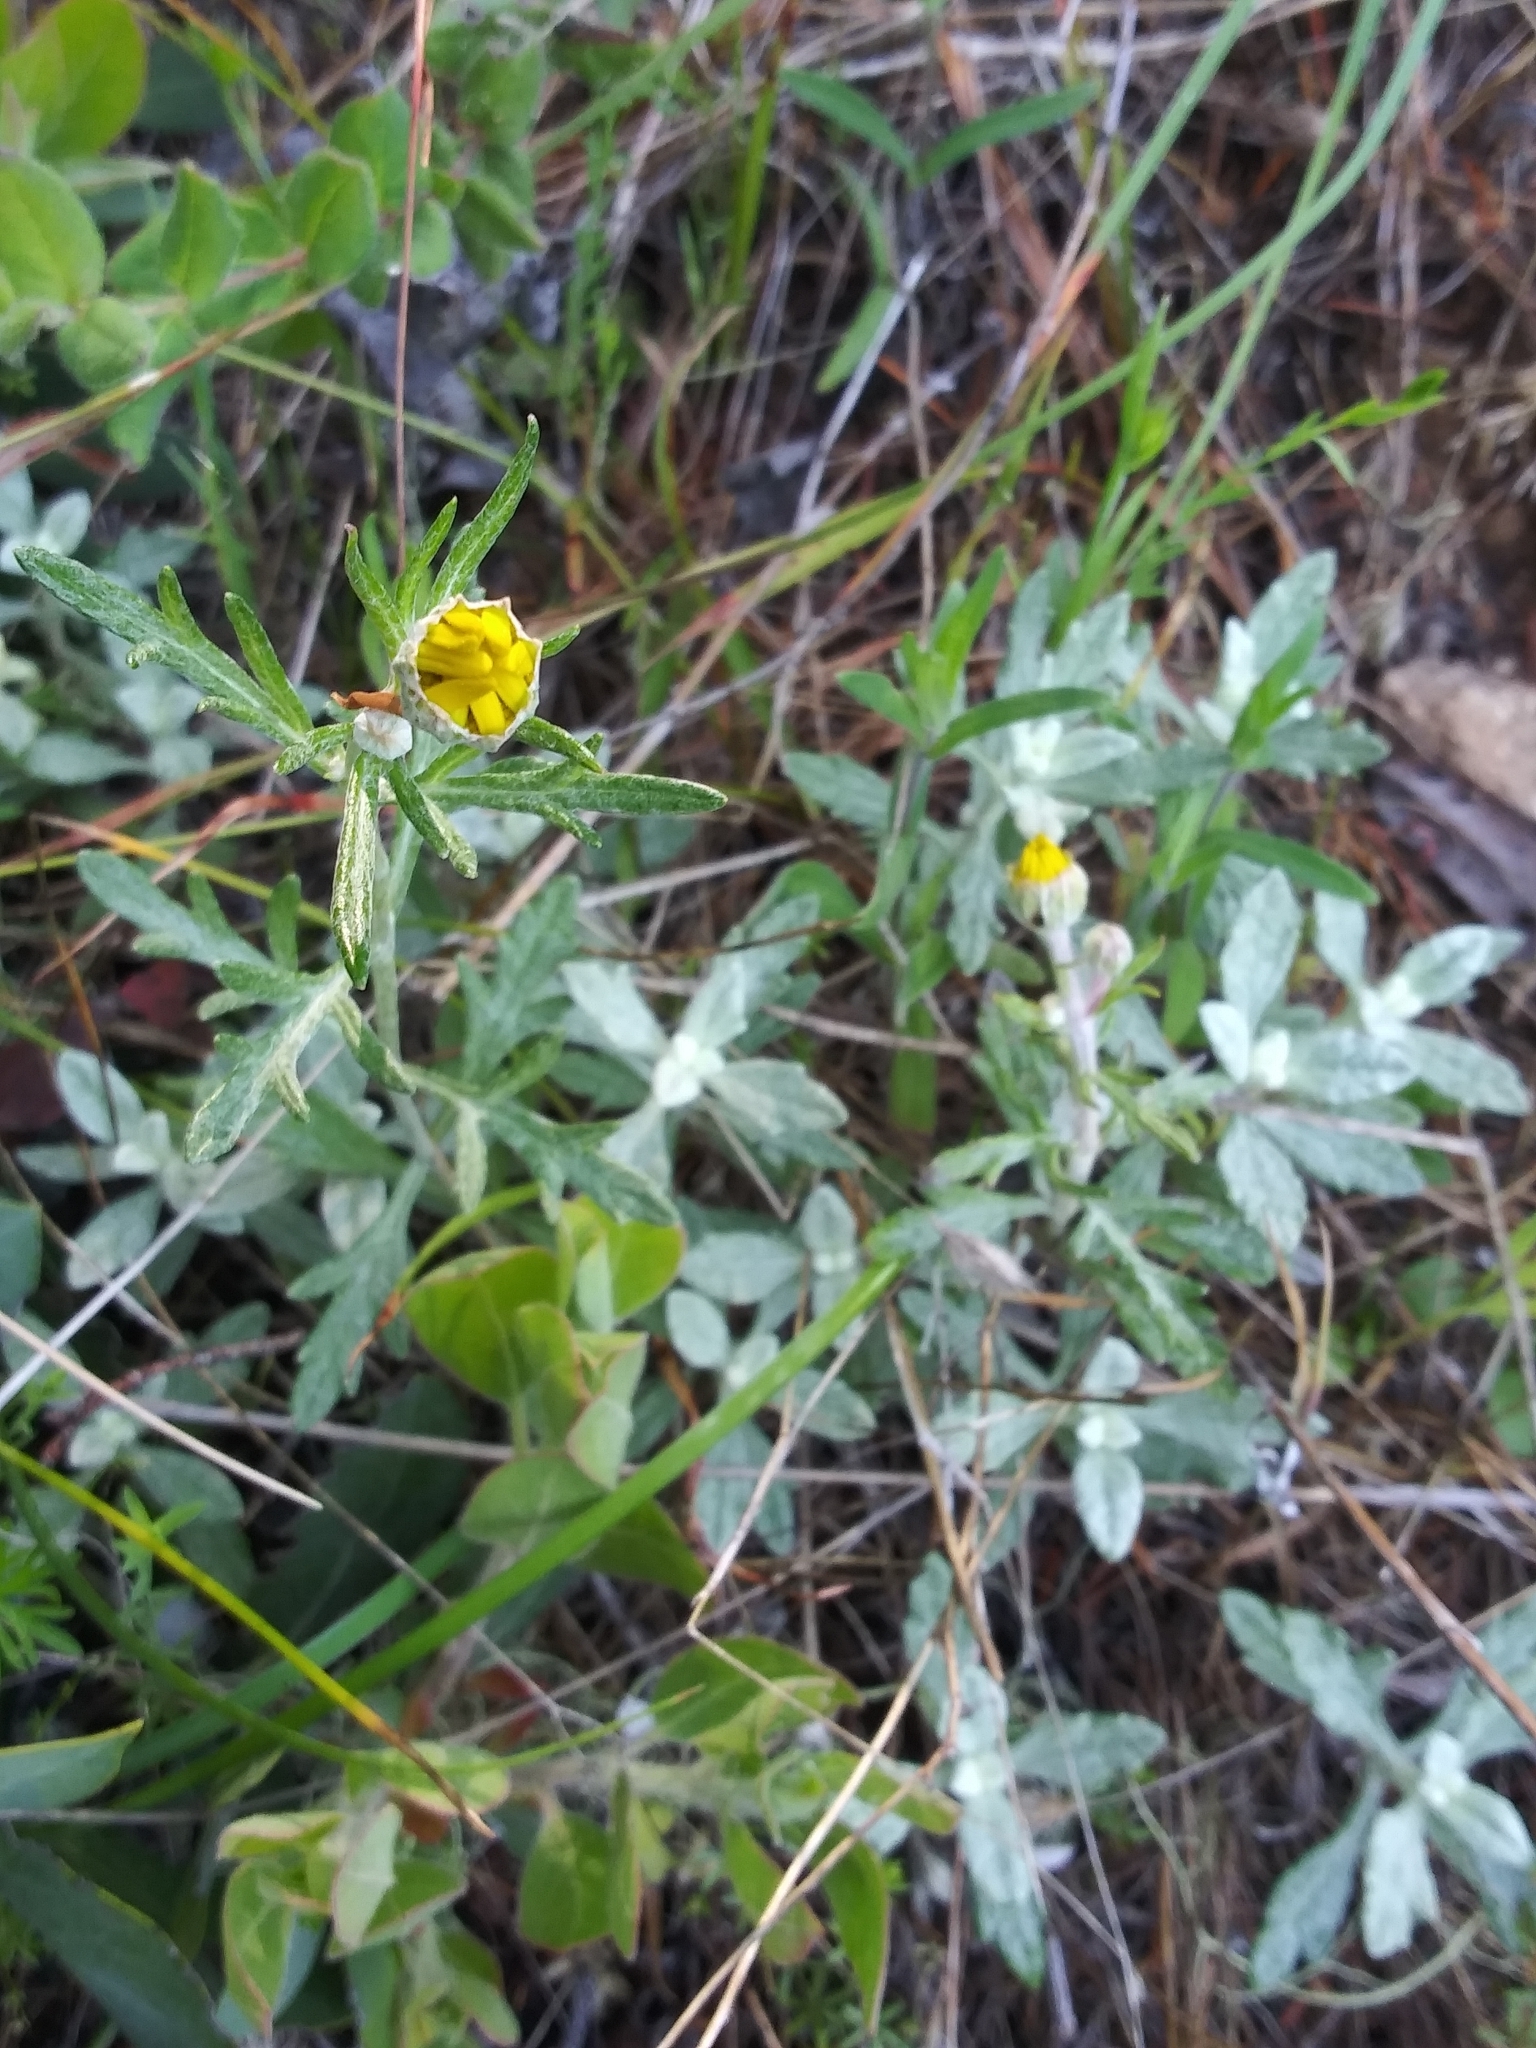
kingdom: Plantae
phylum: Tracheophyta
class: Magnoliopsida
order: Asterales
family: Asteraceae
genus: Eriophyllum
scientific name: Eriophyllum lanatum
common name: Common woolly-sunflower
